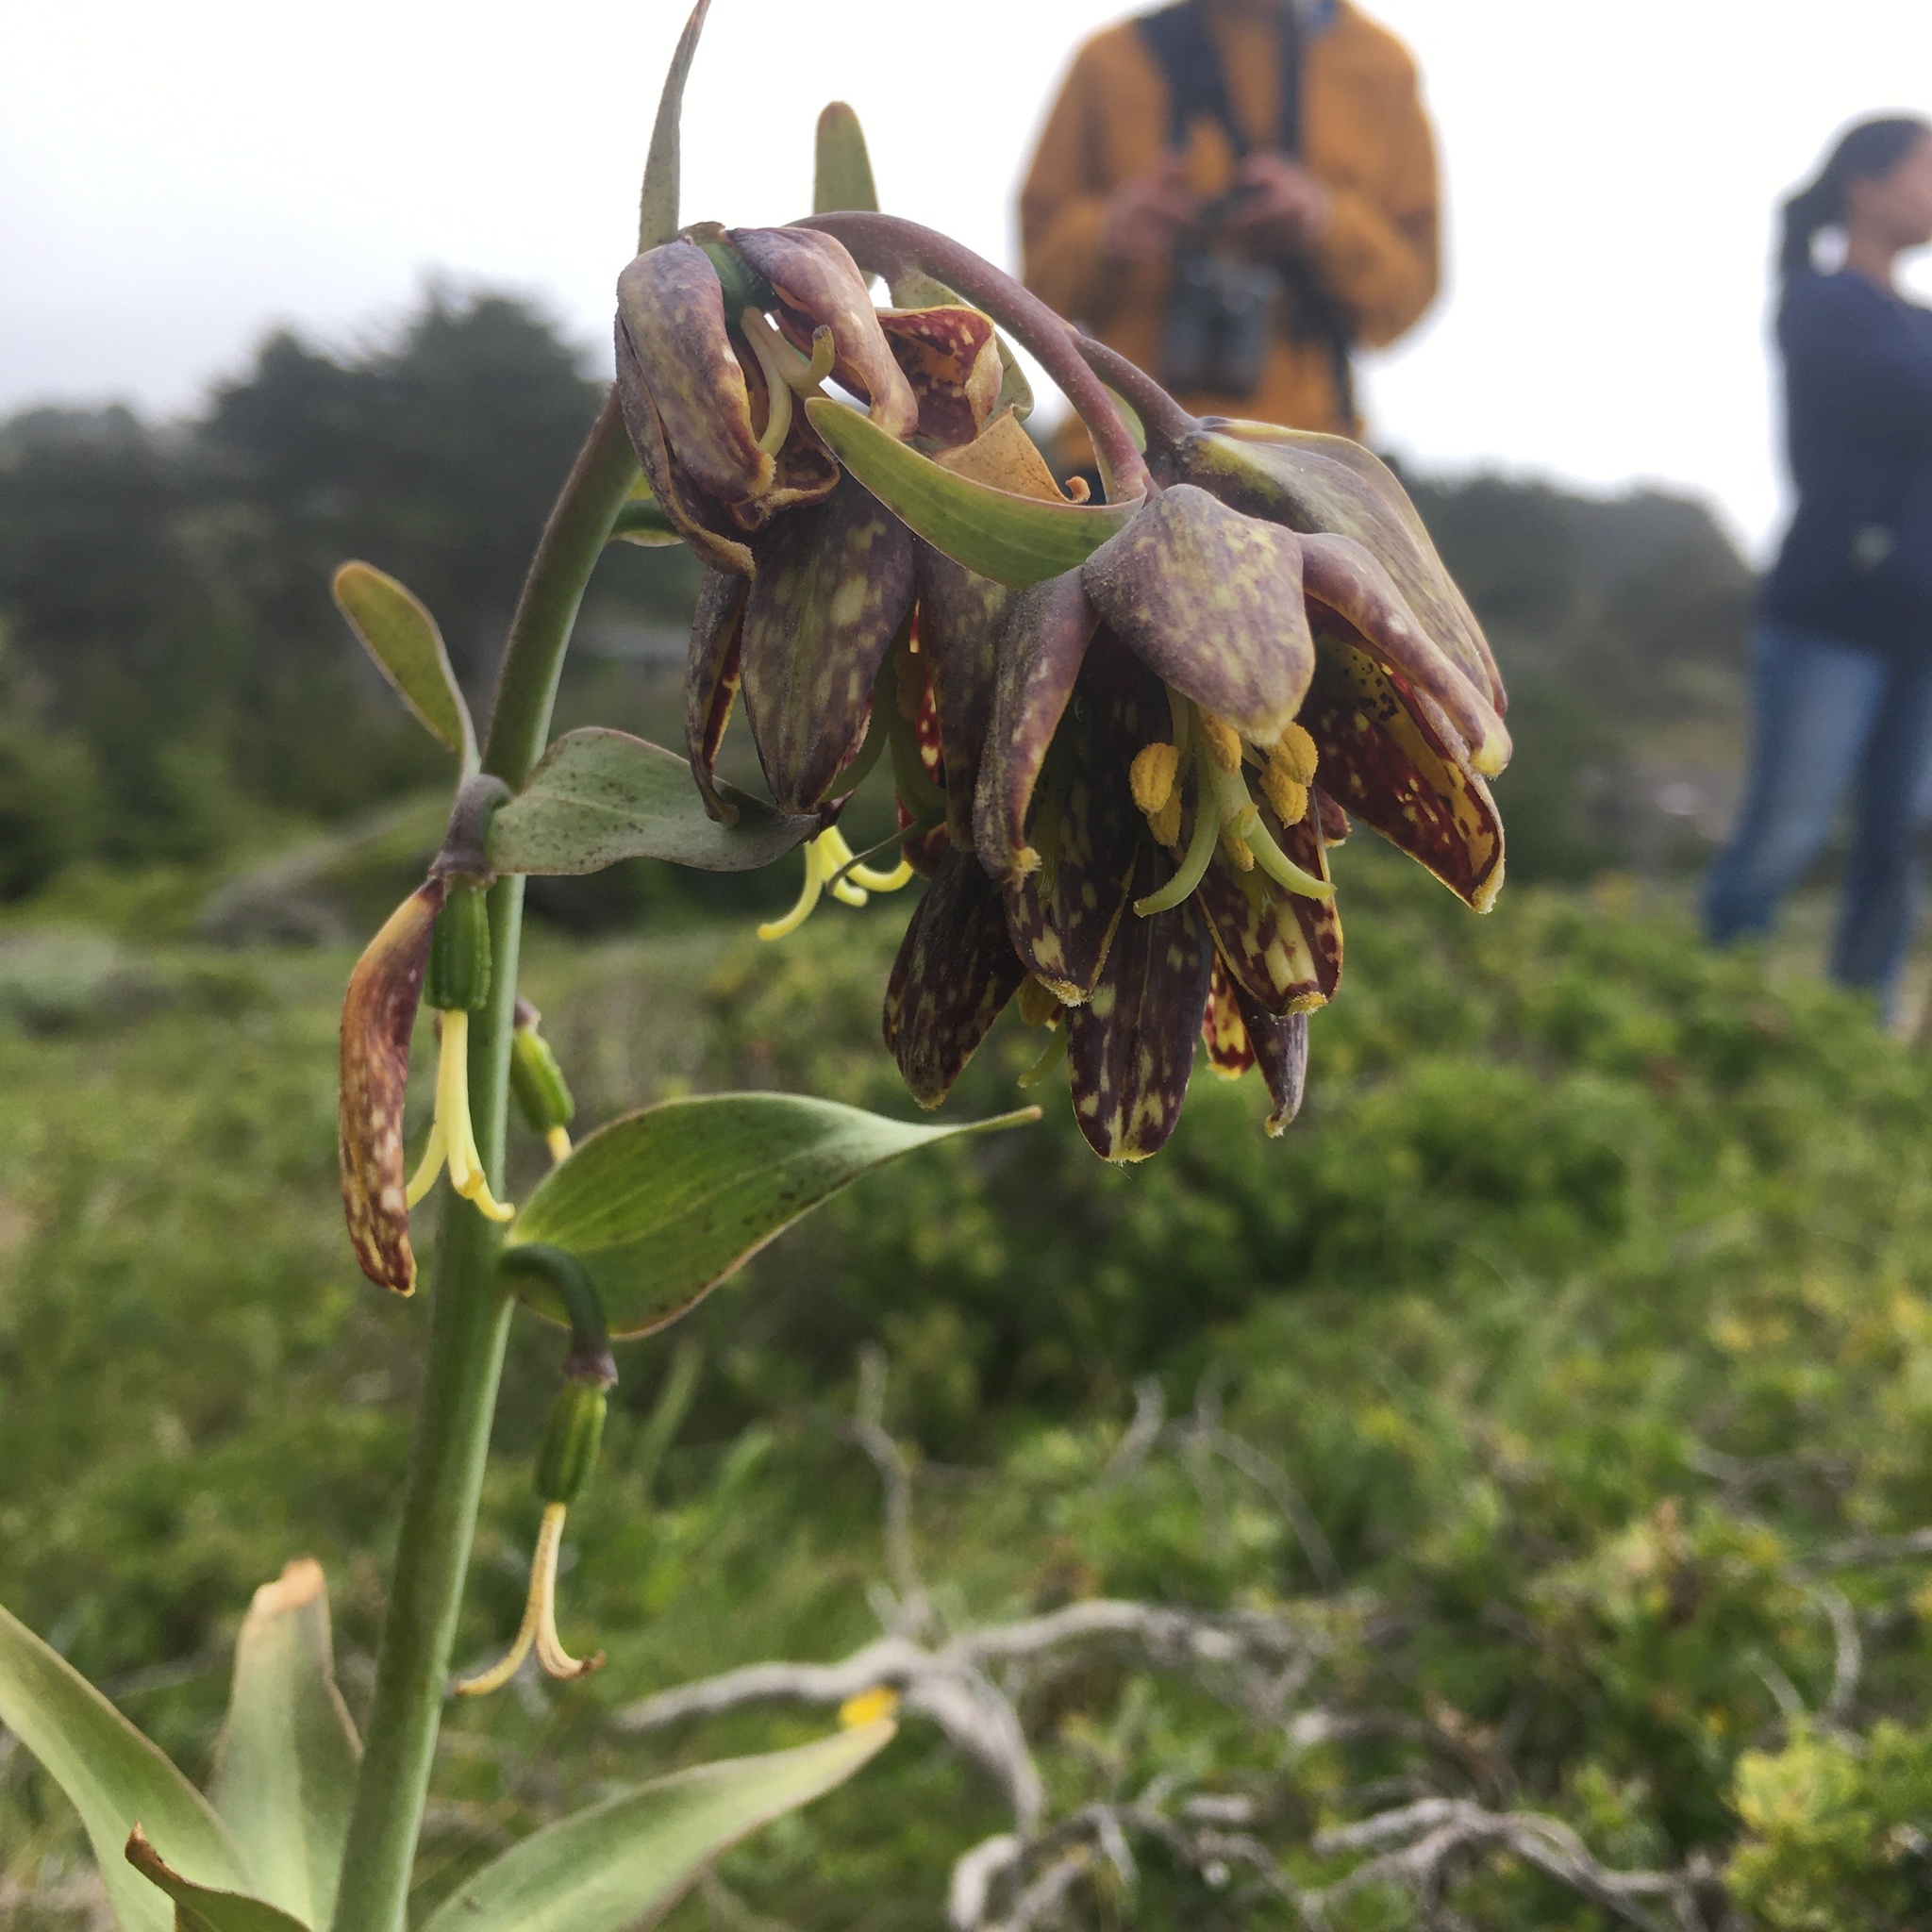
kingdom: Plantae
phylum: Tracheophyta
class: Liliopsida
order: Liliales
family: Liliaceae
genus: Fritillaria
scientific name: Fritillaria affinis
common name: Ojai fritillary
